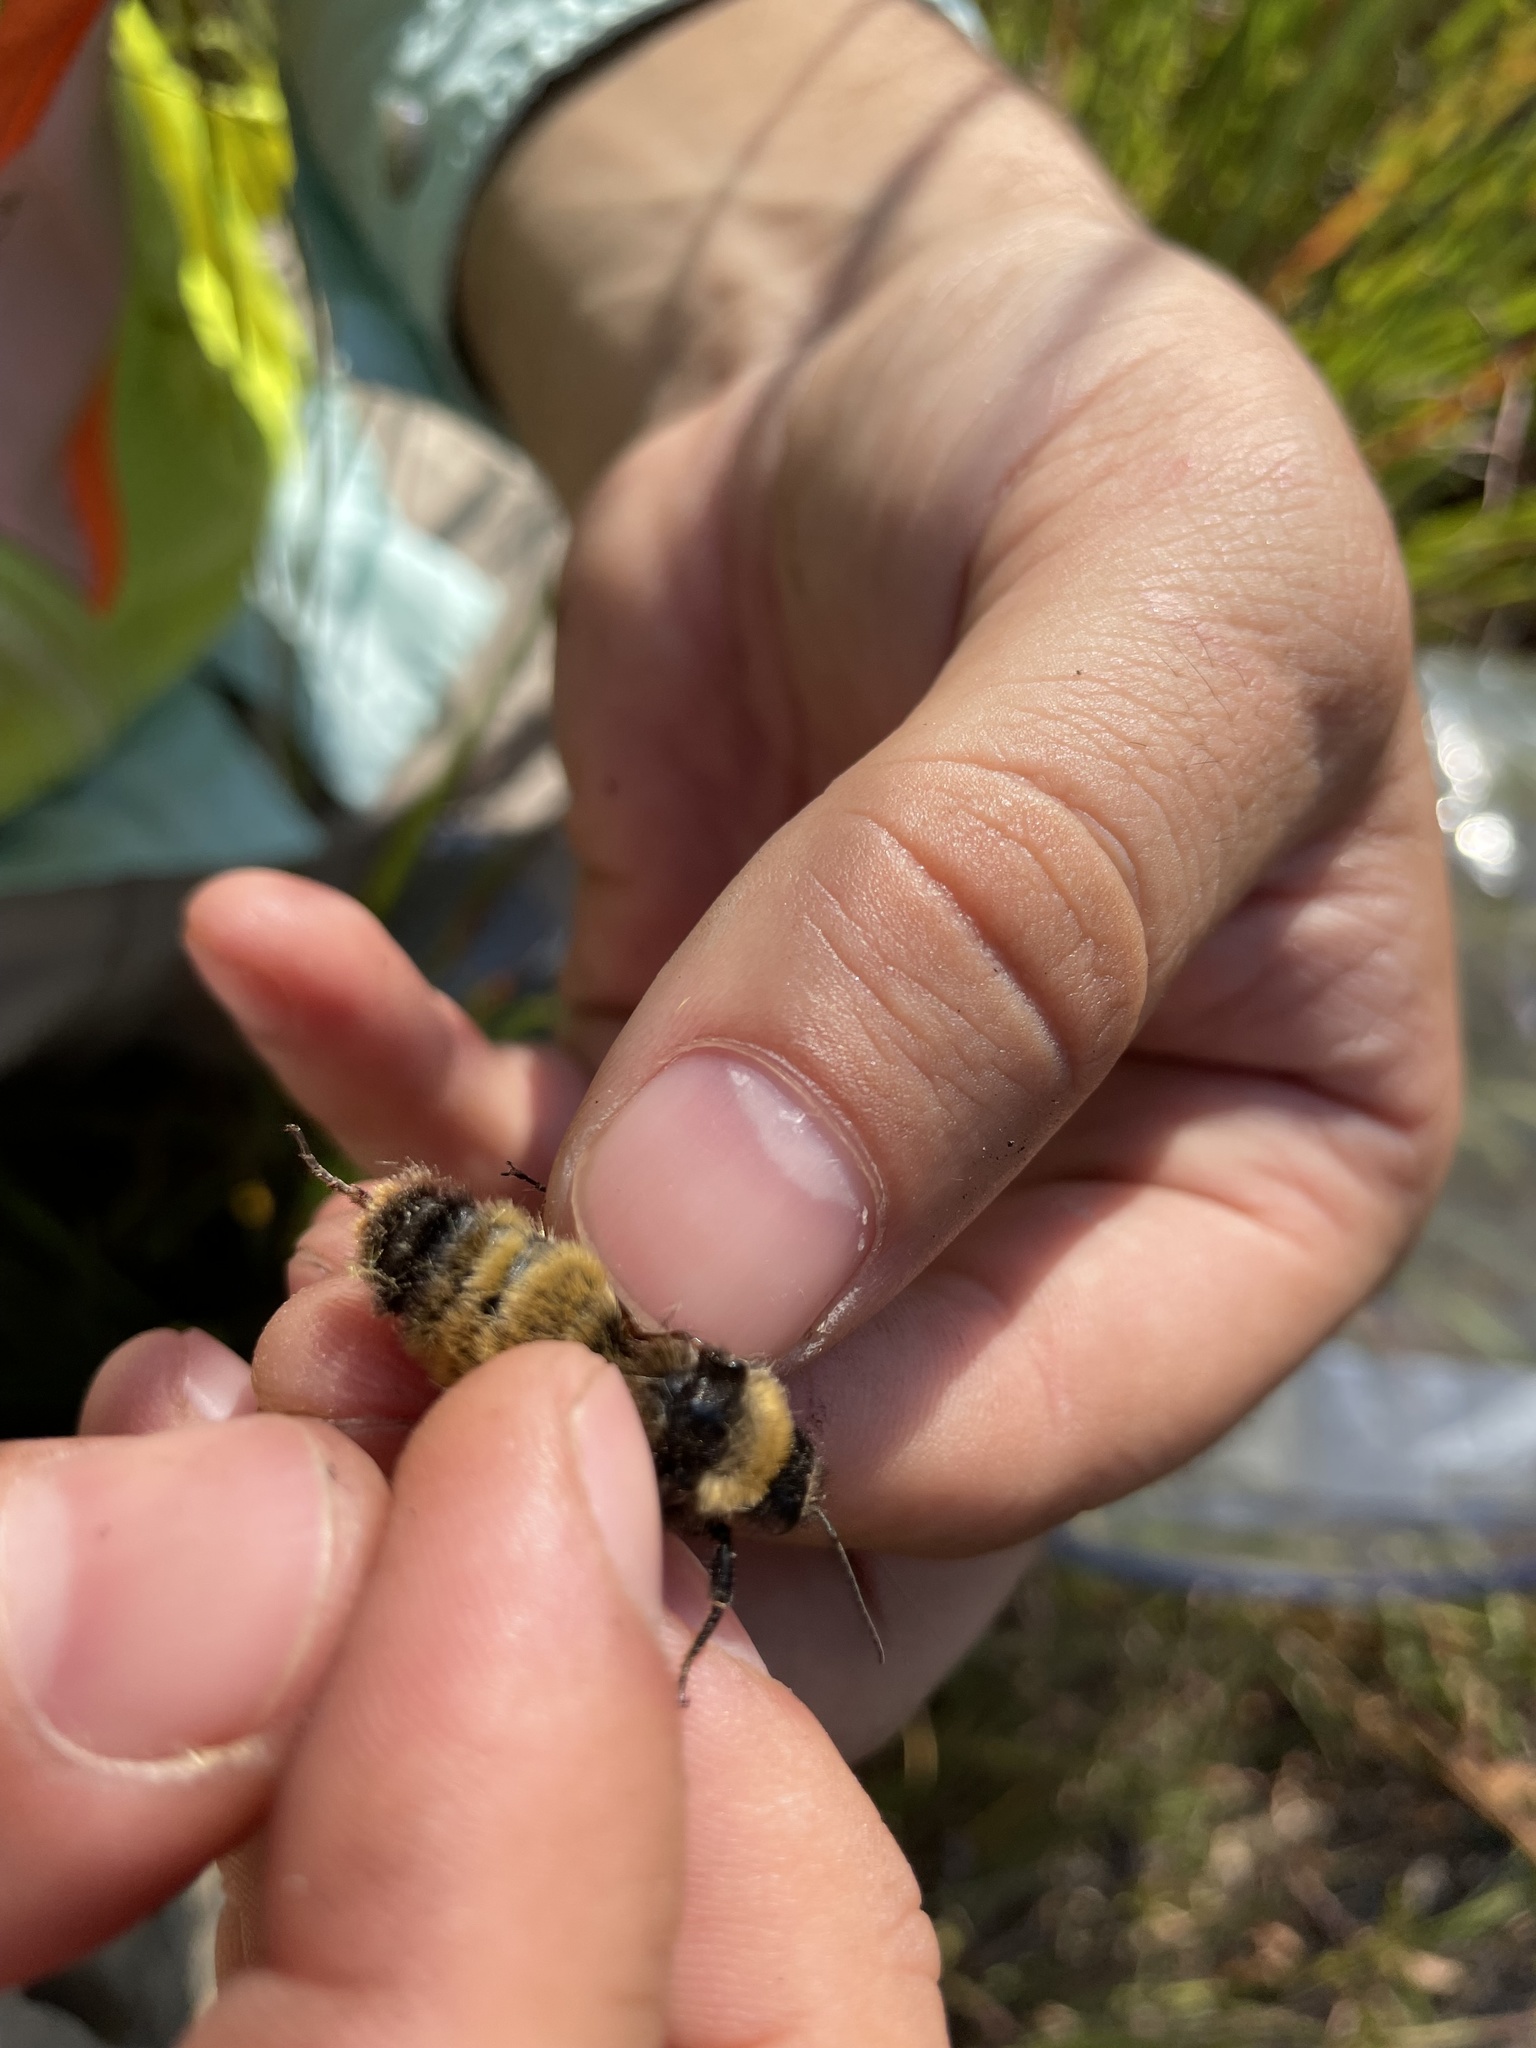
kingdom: Animalia
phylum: Arthropoda
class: Insecta
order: Hymenoptera
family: Apidae
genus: Bombus
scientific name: Bombus pensylvanicus
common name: Bumble bee
